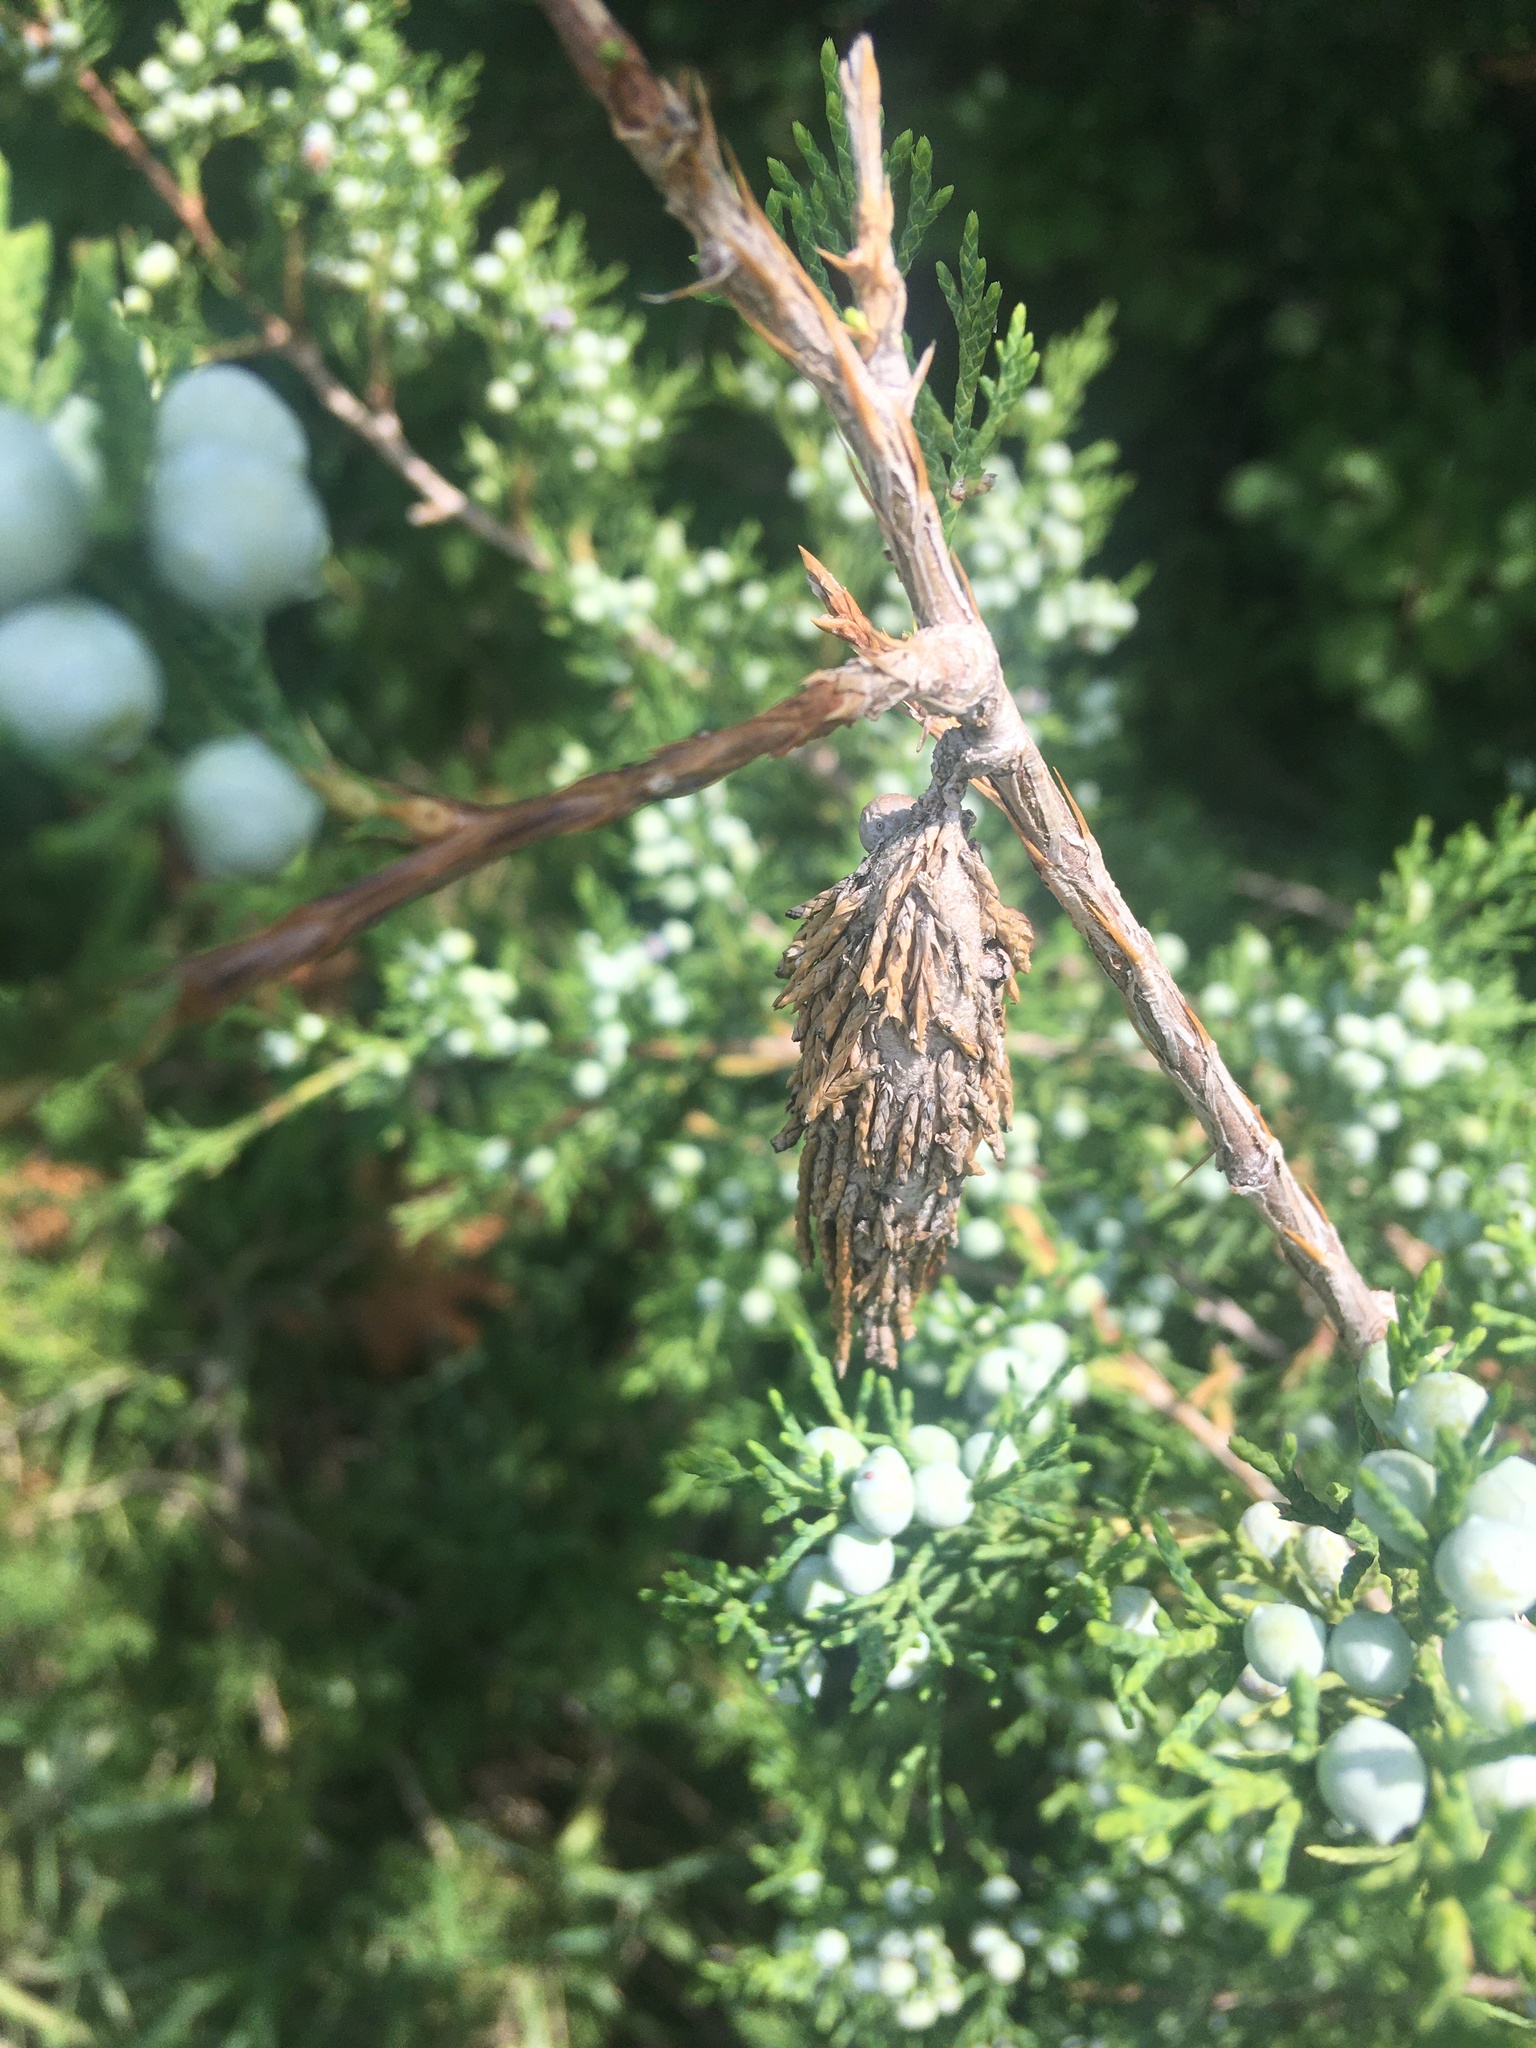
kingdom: Animalia
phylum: Arthropoda
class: Insecta
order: Lepidoptera
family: Psychidae
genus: Thyridopteryx
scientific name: Thyridopteryx ephemeraeformis
